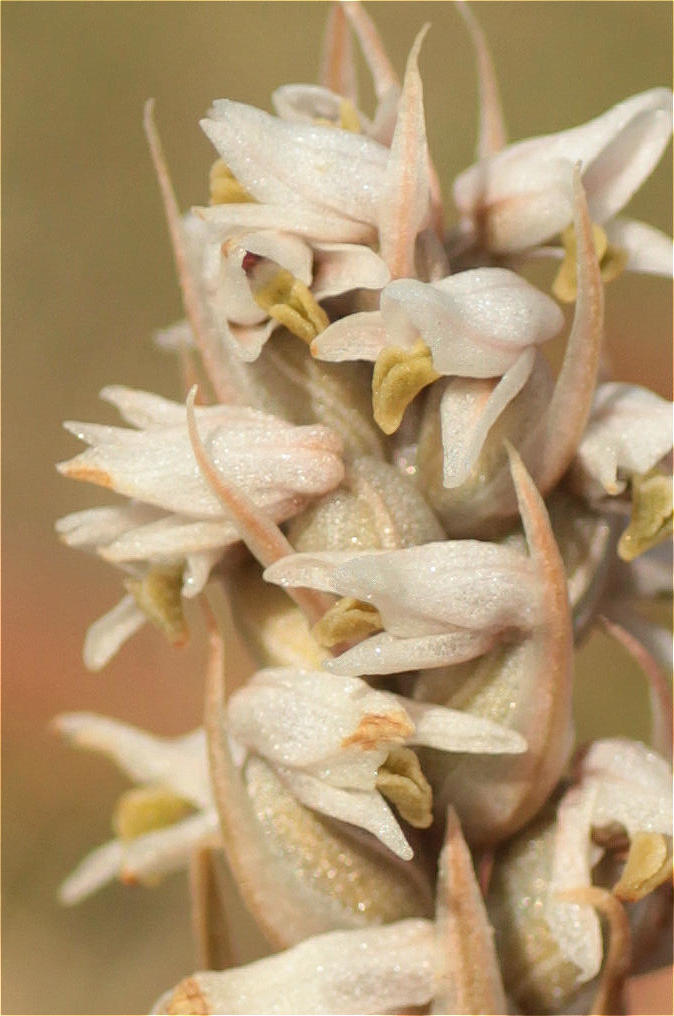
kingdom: Plantae
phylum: Tracheophyta
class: Liliopsida
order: Asparagales
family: Orchidaceae
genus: Zeuxine
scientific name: Zeuxine strateumatica
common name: Soldier's orchid
